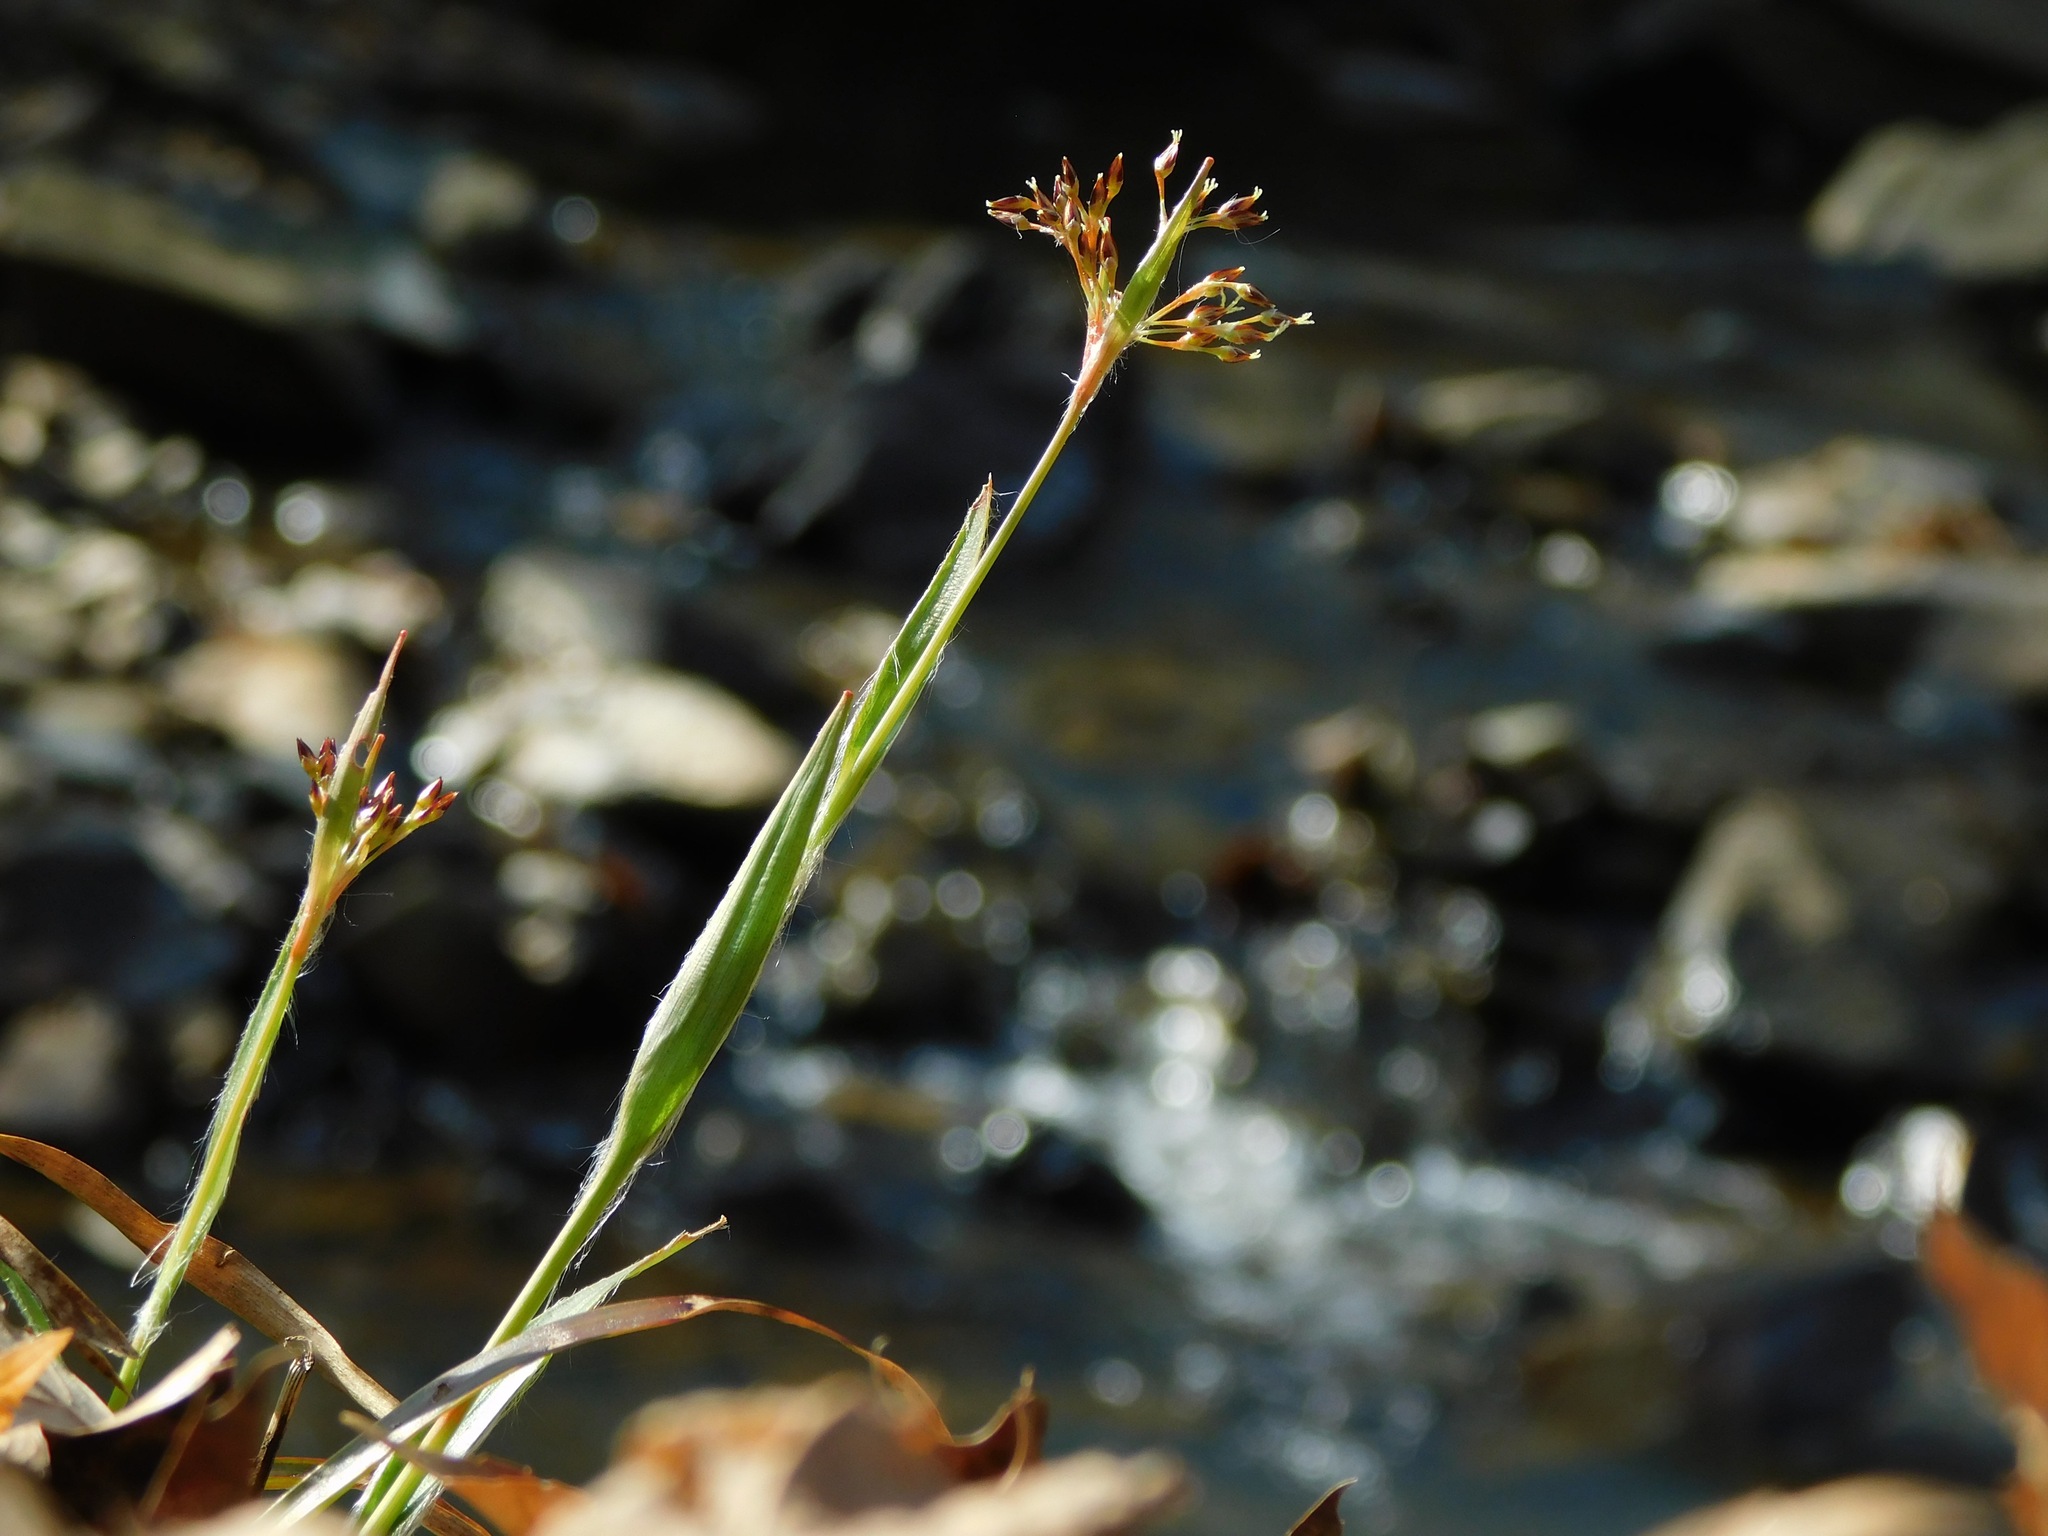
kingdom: Plantae
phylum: Tracheophyta
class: Liliopsida
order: Poales
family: Juncaceae
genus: Luzula
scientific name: Luzula echinata
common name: Hedgehog woodrush
